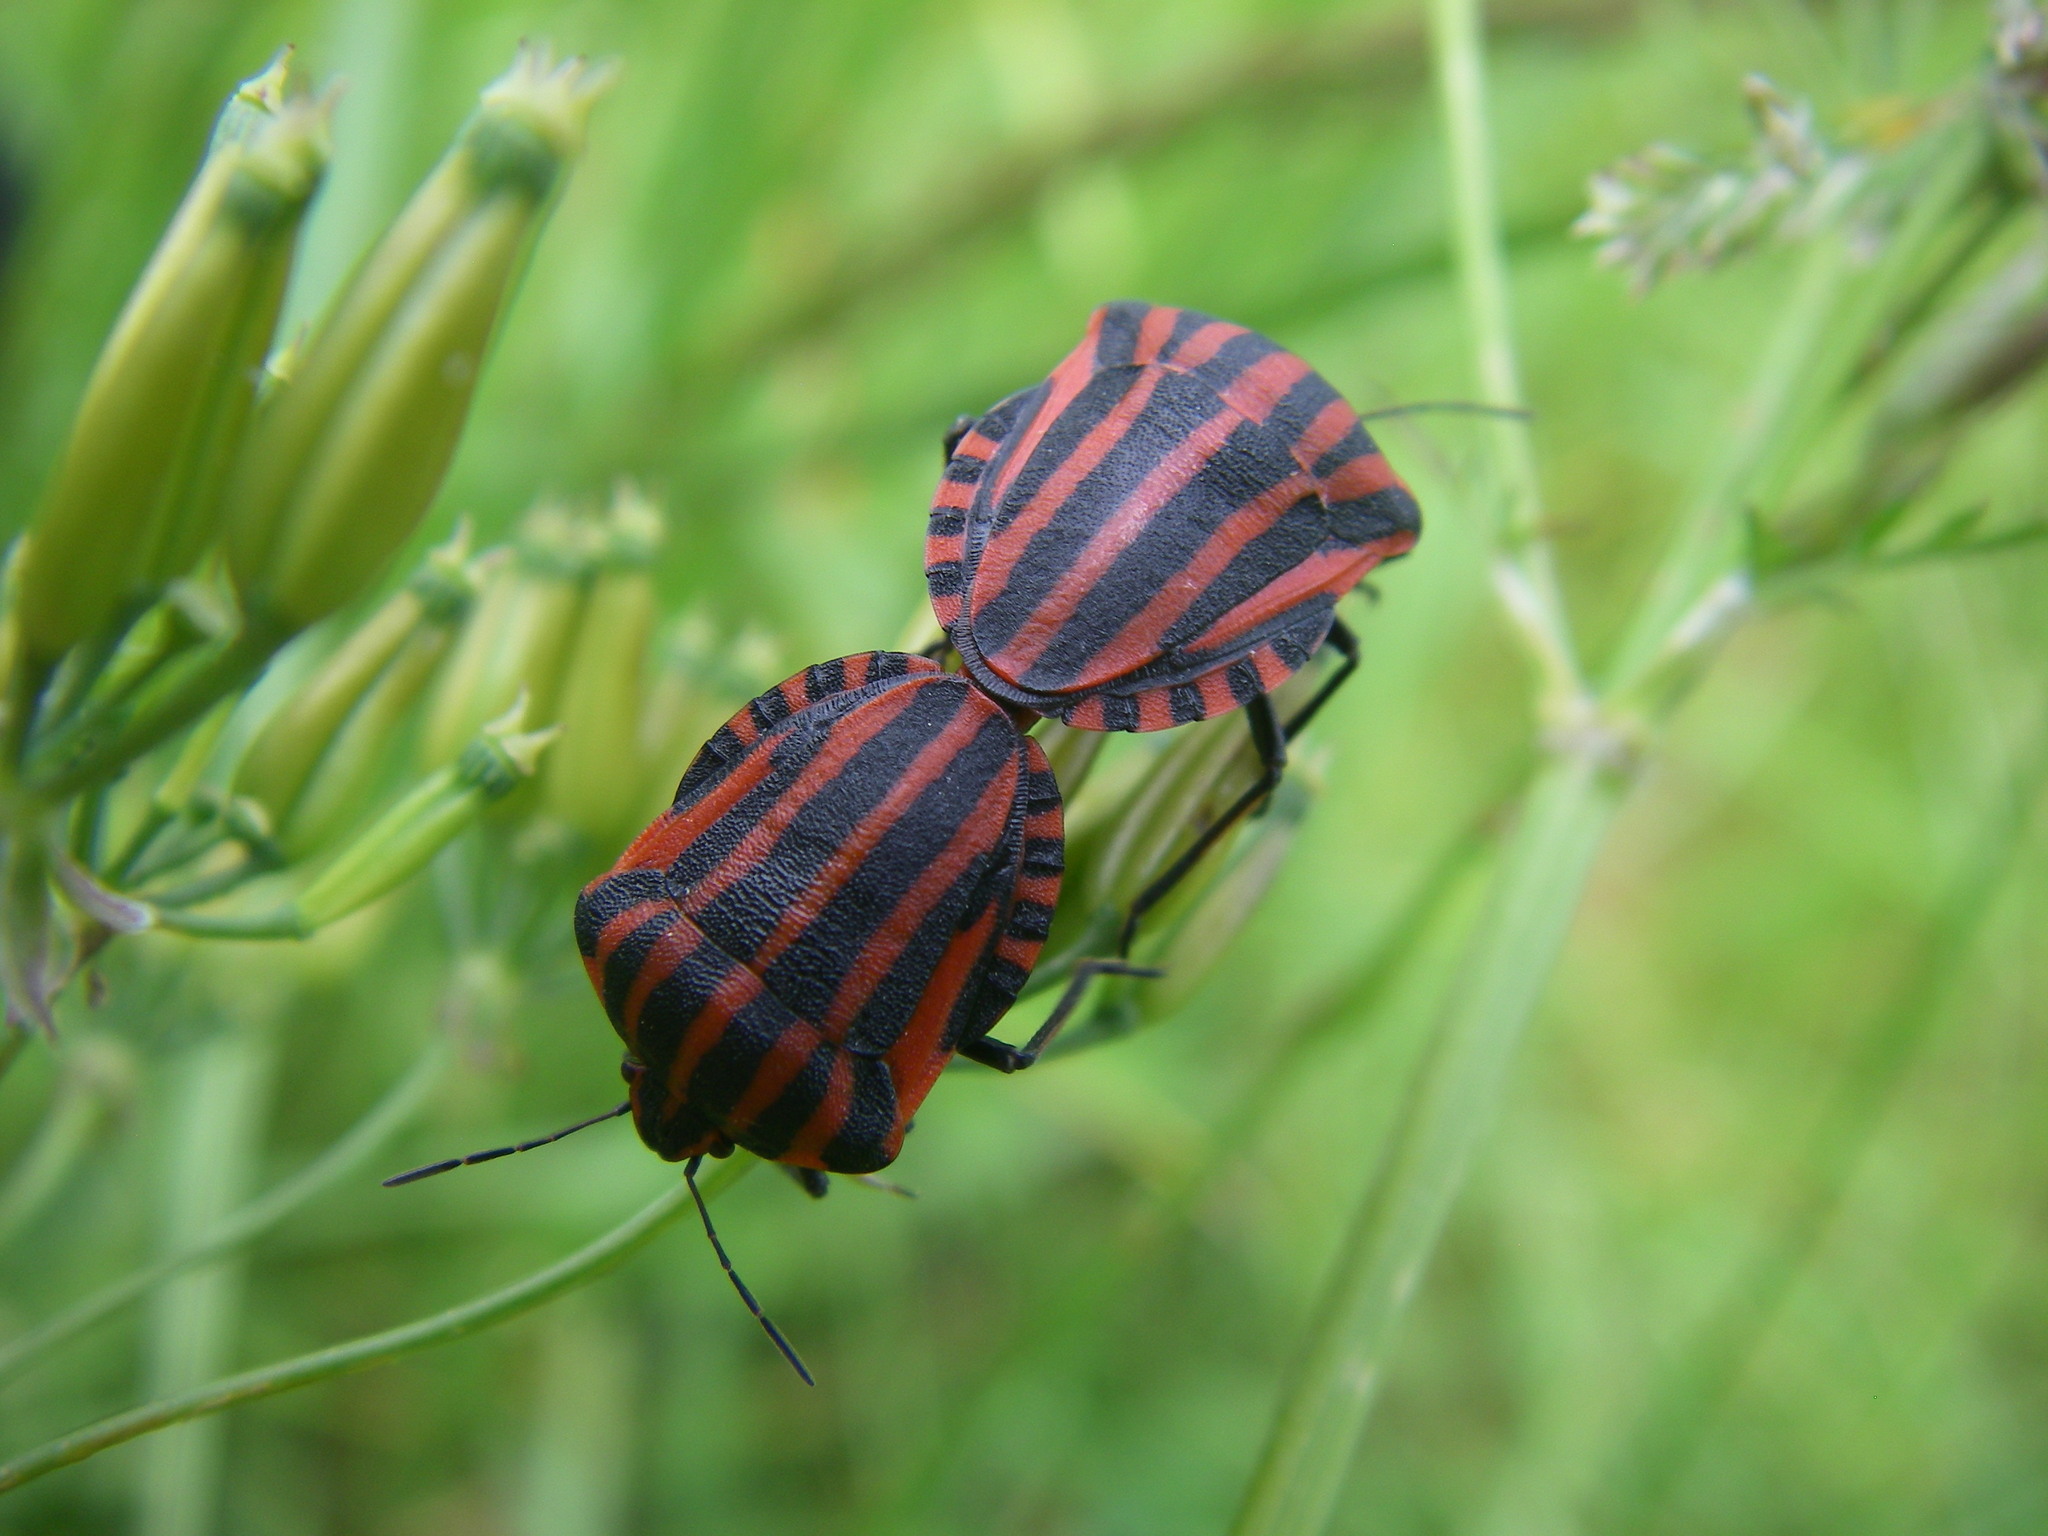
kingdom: Animalia
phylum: Arthropoda
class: Insecta
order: Hemiptera
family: Pentatomidae
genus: Graphosoma
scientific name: Graphosoma italicum
